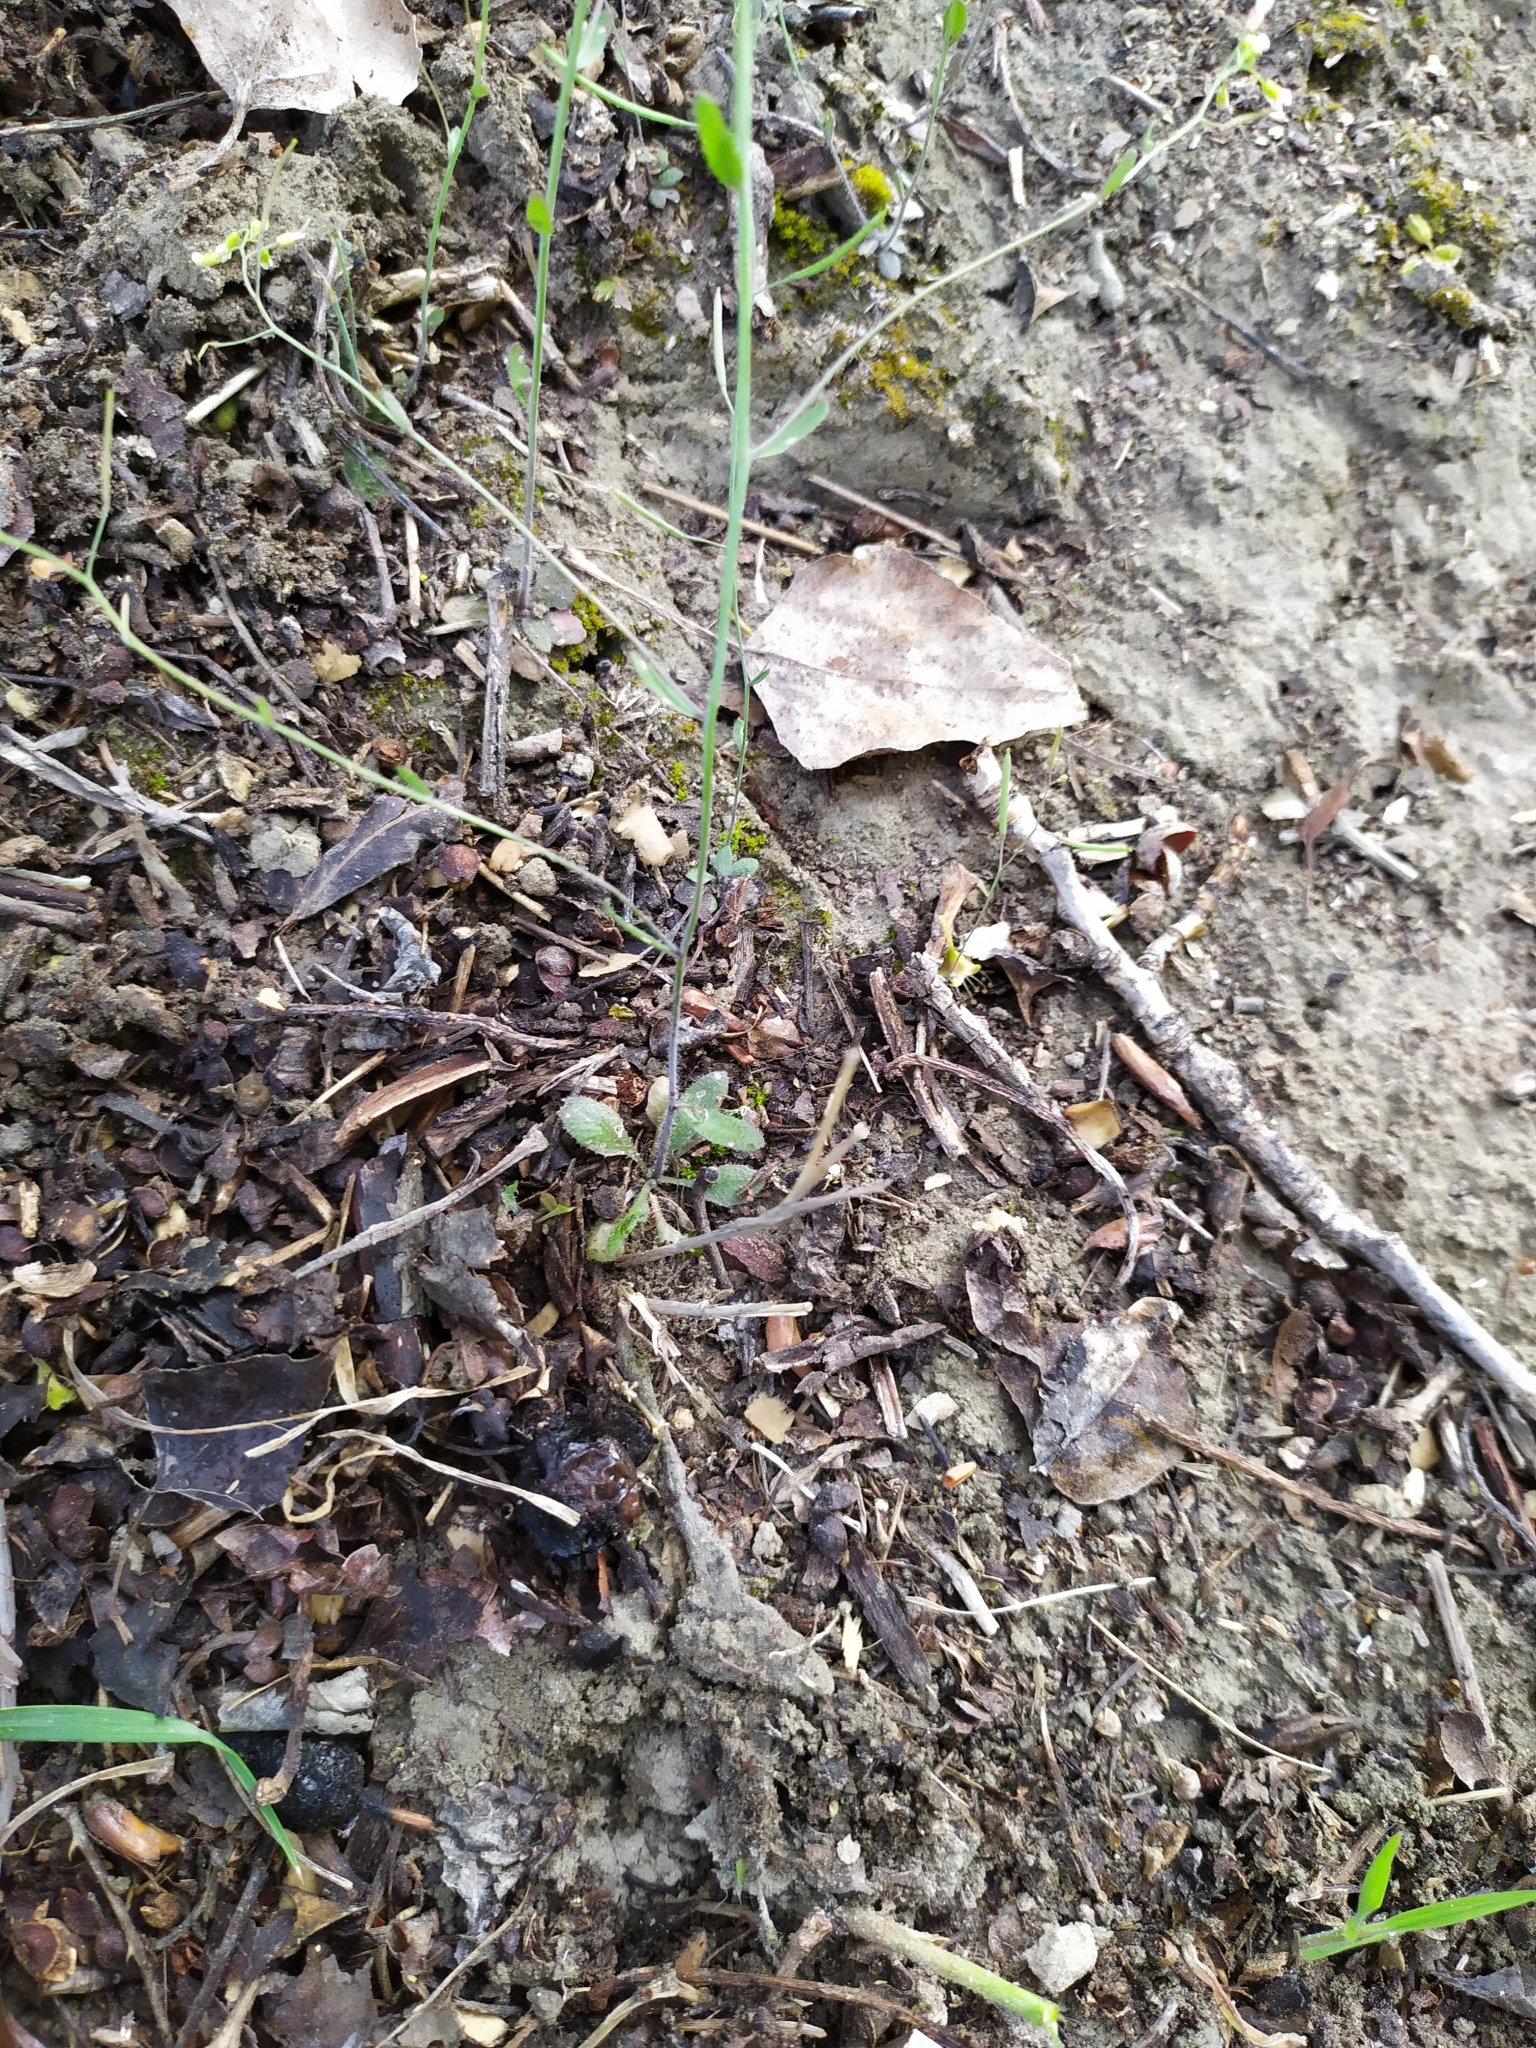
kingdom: Plantae
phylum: Tracheophyta
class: Magnoliopsida
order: Brassicales
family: Brassicaceae
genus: Arabidopsis
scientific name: Arabidopsis thaliana
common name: Thale cress
